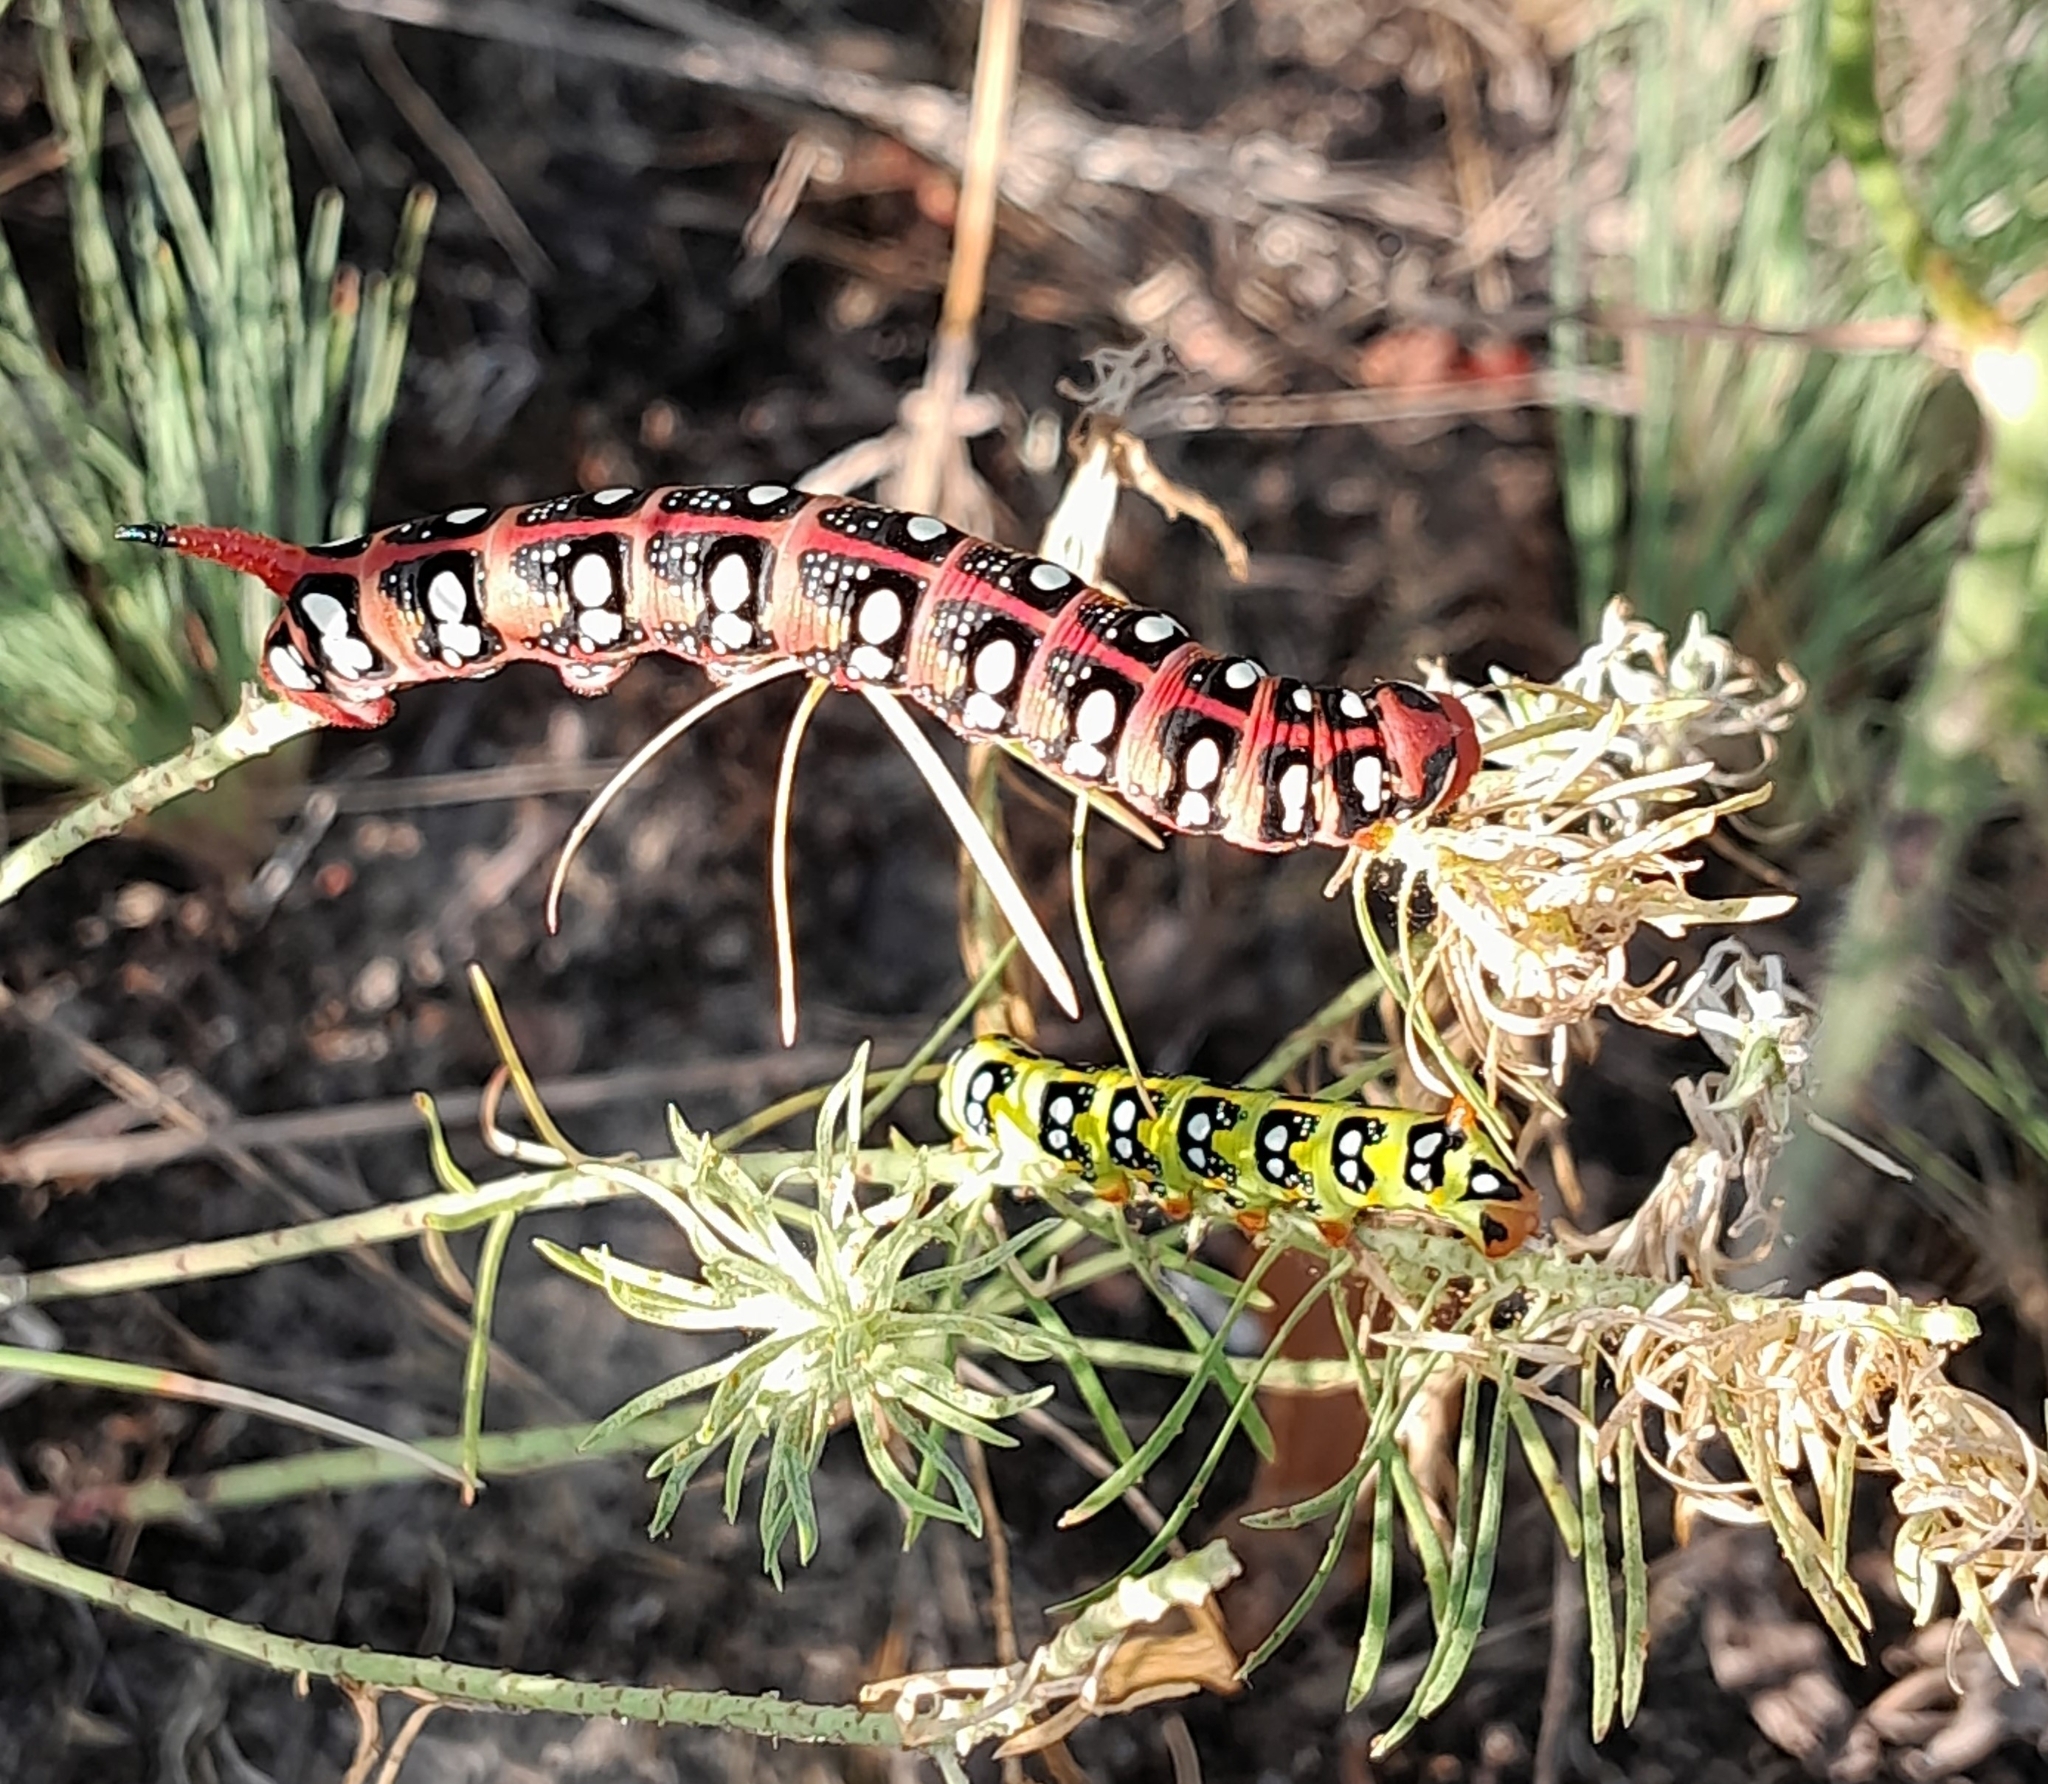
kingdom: Animalia
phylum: Arthropoda
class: Insecta
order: Lepidoptera
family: Sphingidae
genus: Hyles
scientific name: Hyles euphorbiae
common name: Spurge hawk-moth
